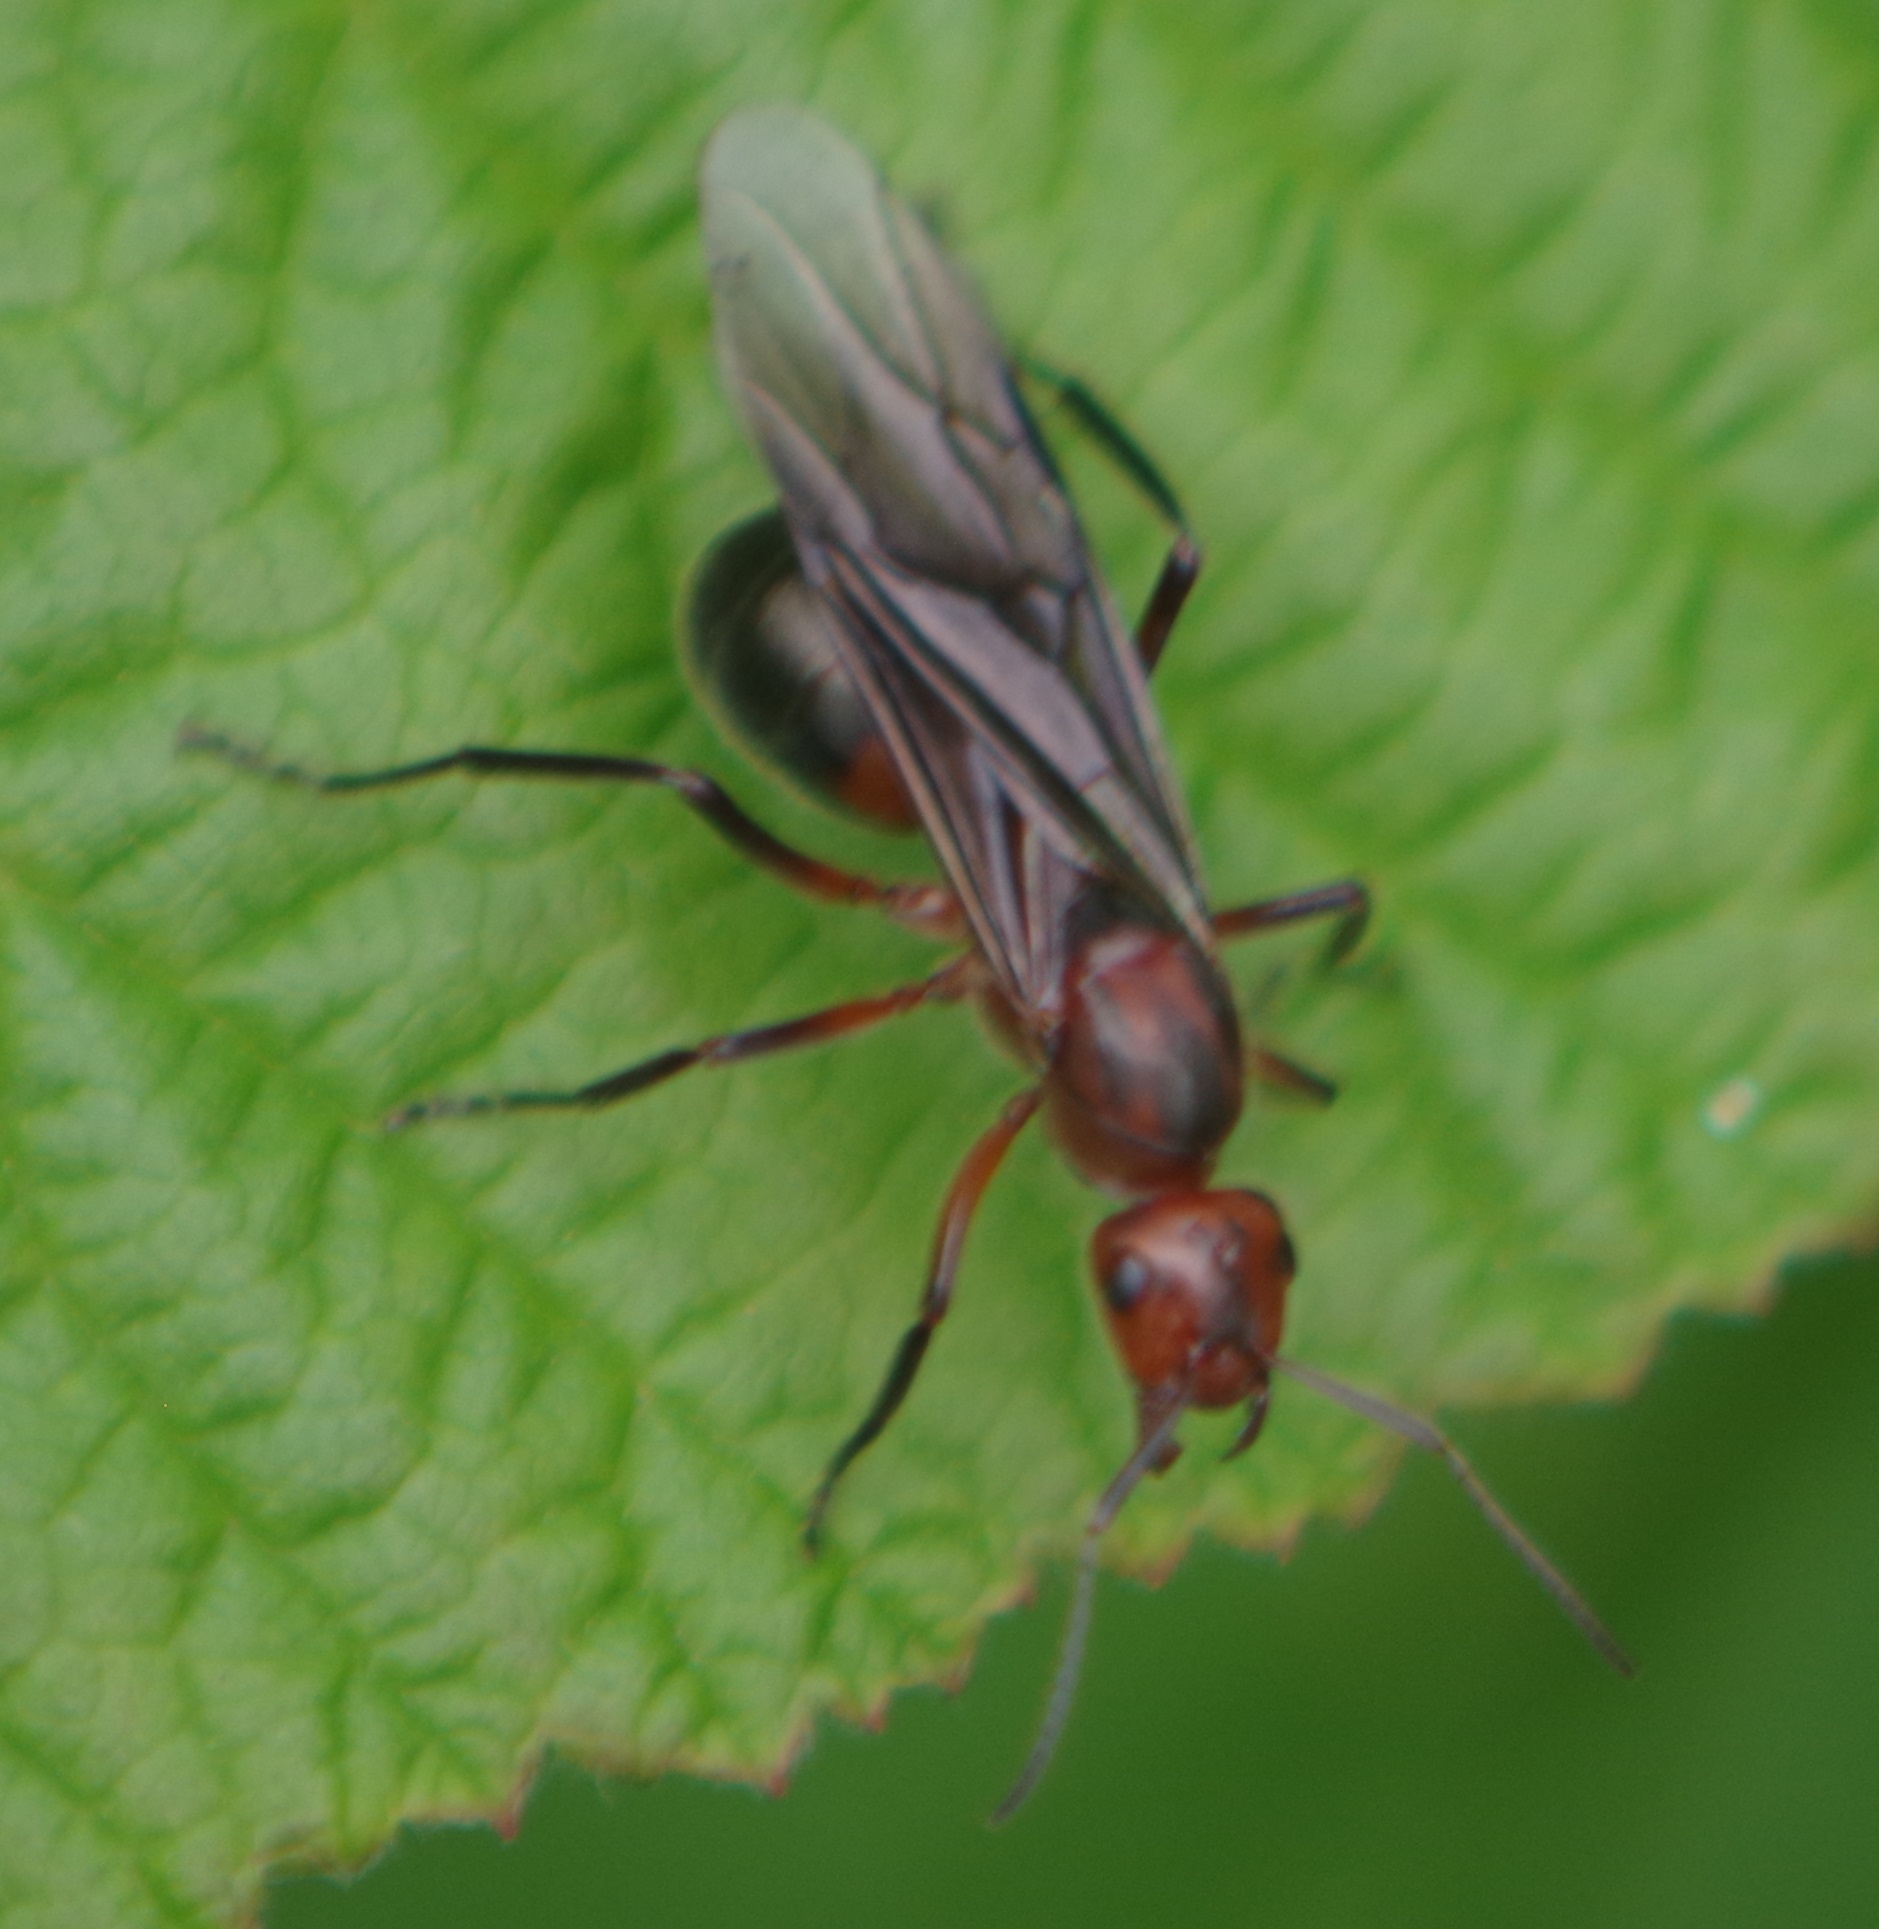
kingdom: Animalia
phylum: Arthropoda
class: Insecta
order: Hymenoptera
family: Formicidae
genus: Formica
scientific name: Formica truncorum
